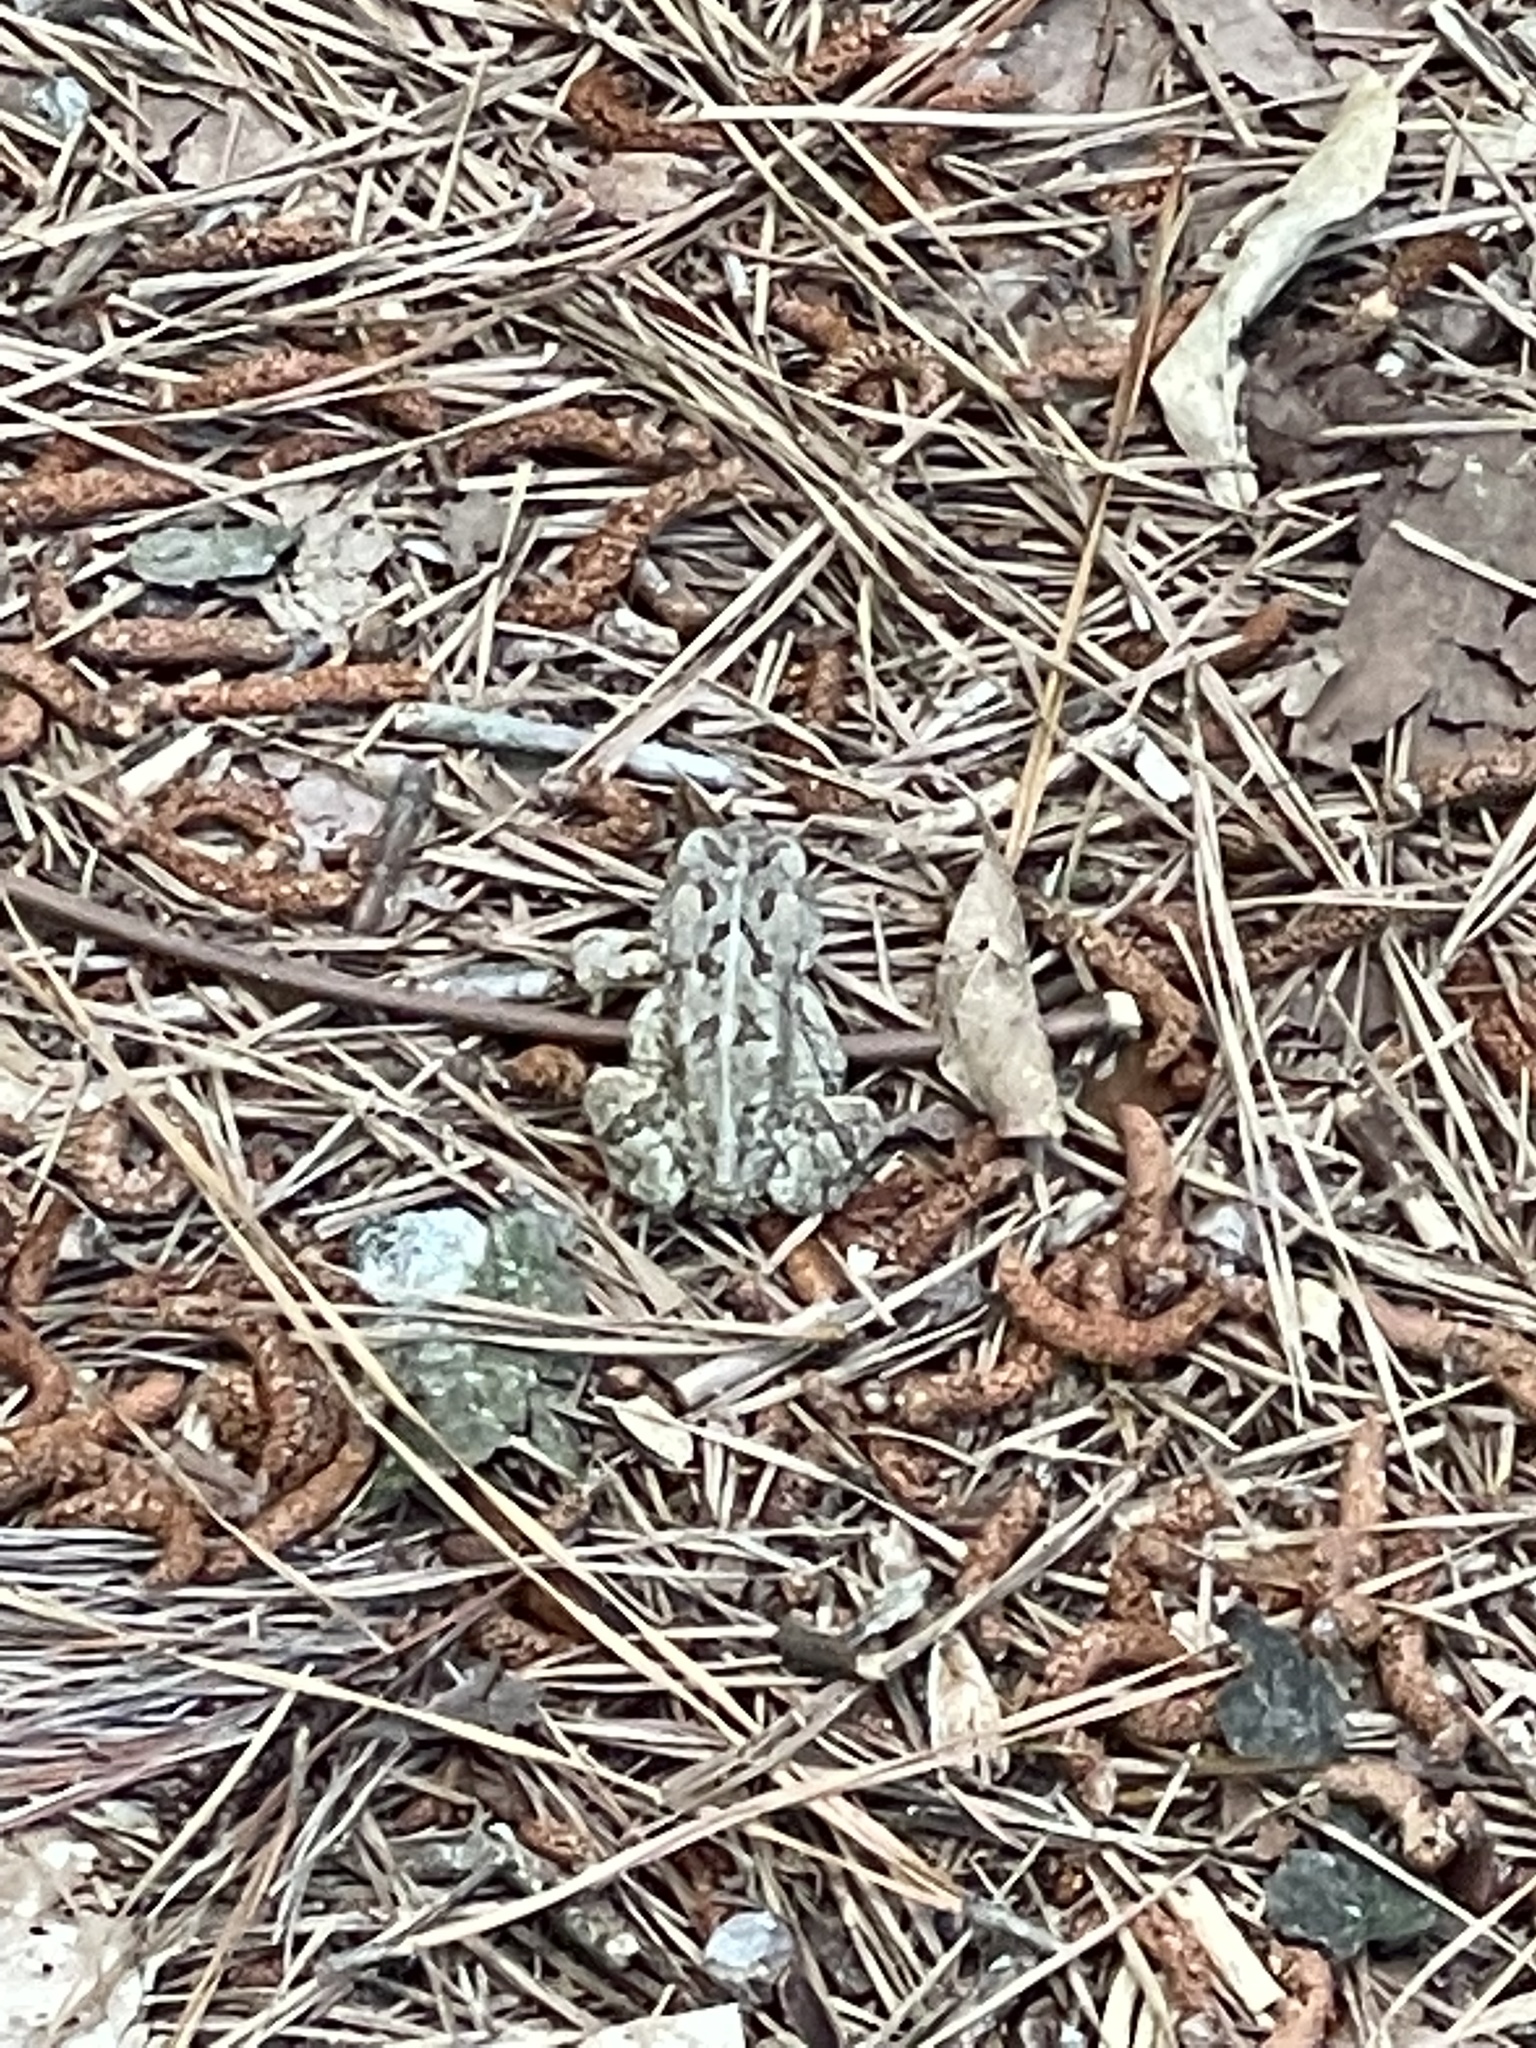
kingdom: Animalia
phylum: Chordata
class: Amphibia
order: Anura
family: Bufonidae
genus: Anaxyrus
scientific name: Anaxyrus fowleri
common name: Fowler's toad
